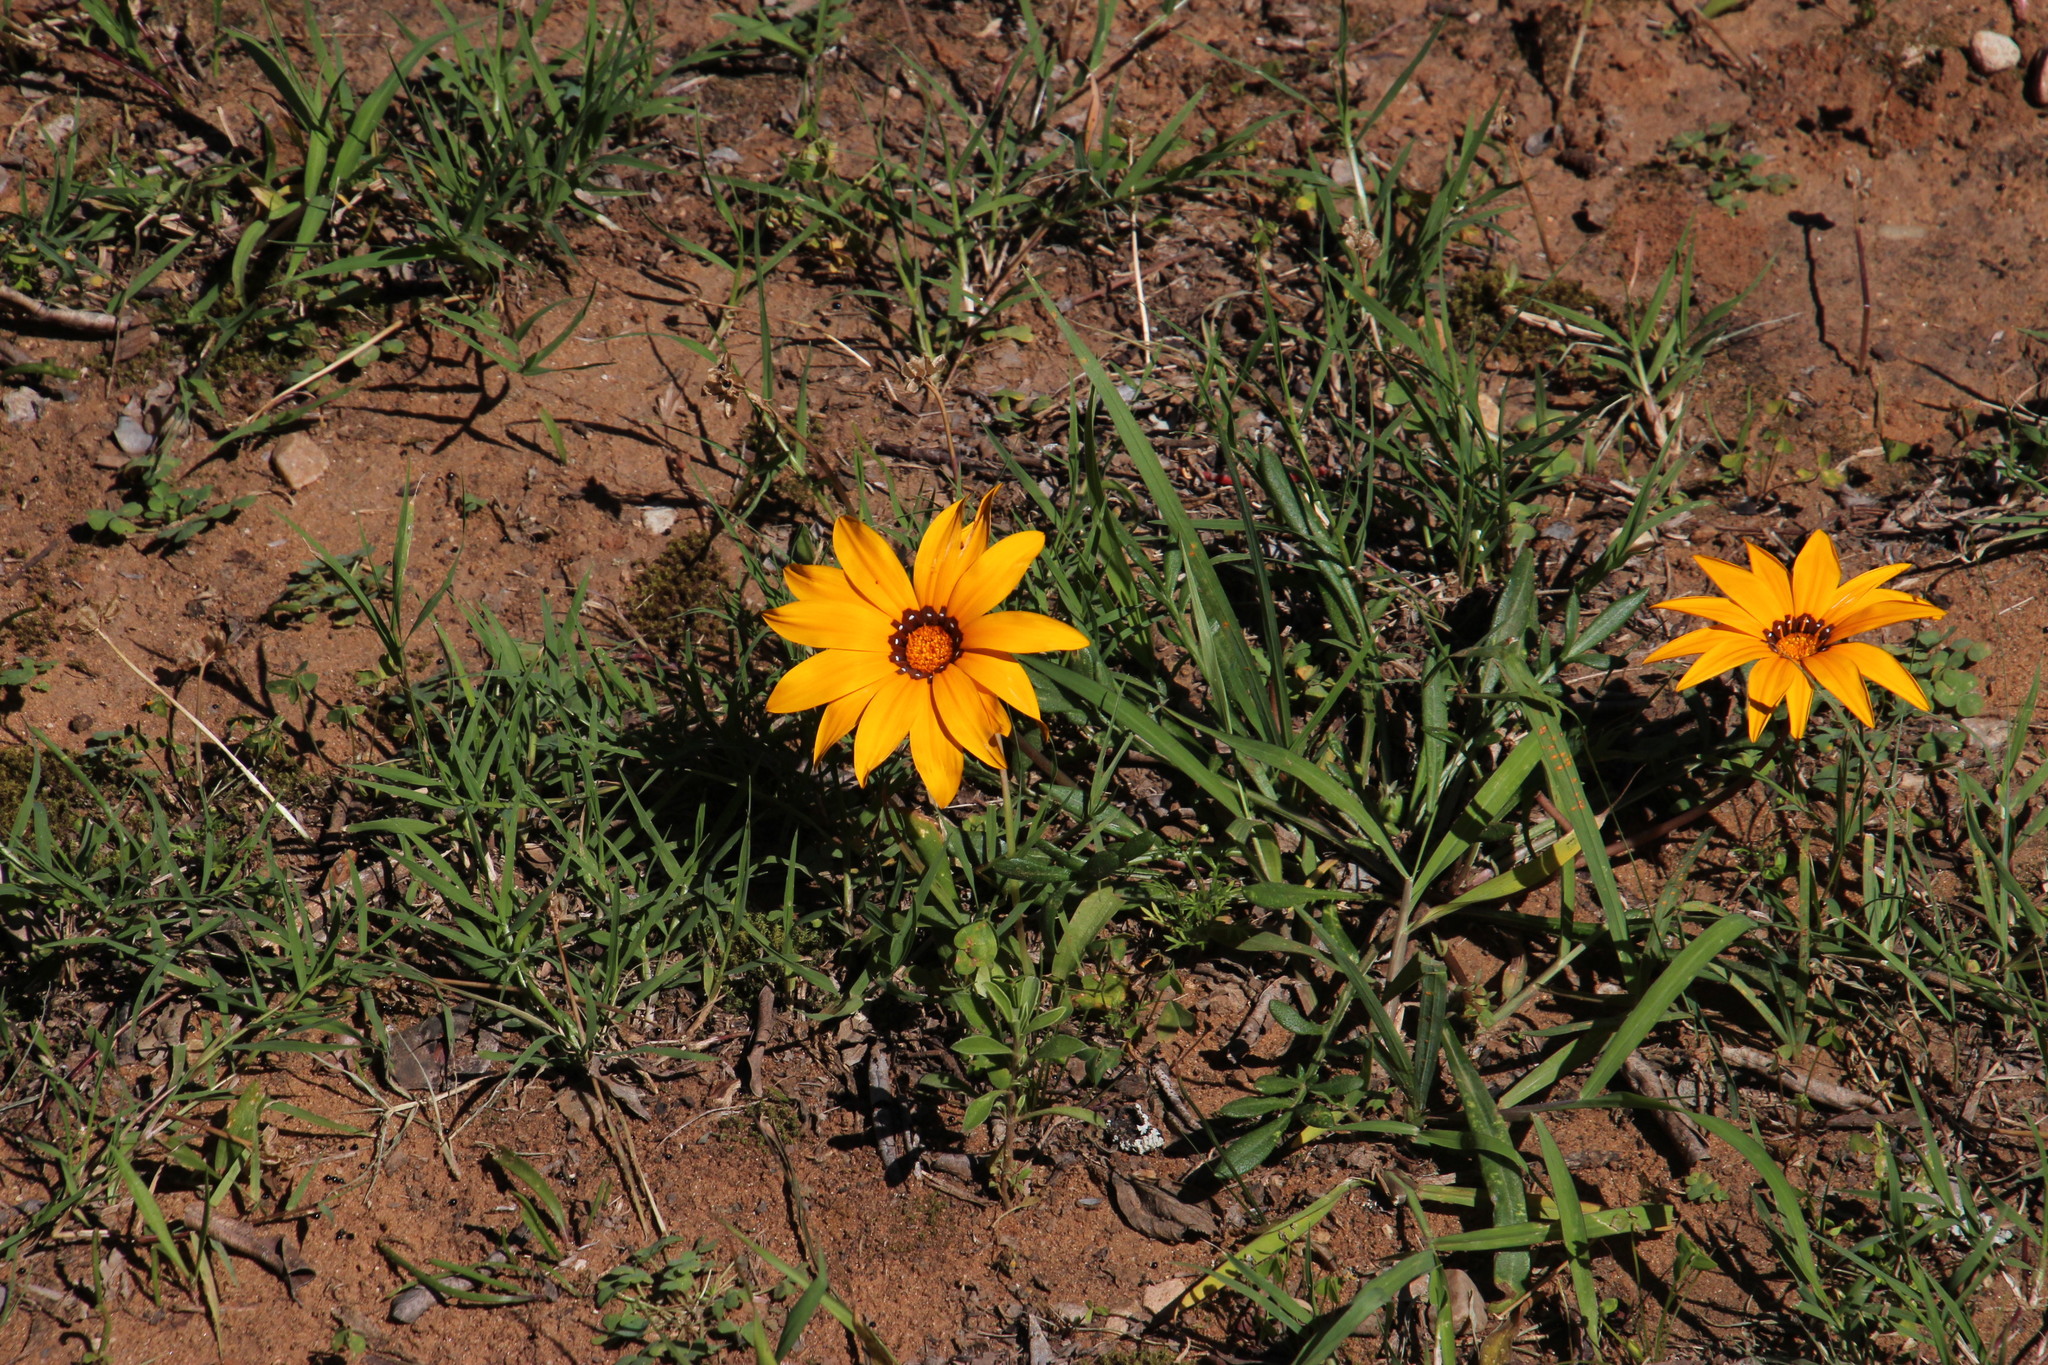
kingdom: Plantae
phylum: Tracheophyta
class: Magnoliopsida
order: Asterales
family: Asteraceae
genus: Gazania
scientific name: Gazania krebsiana
